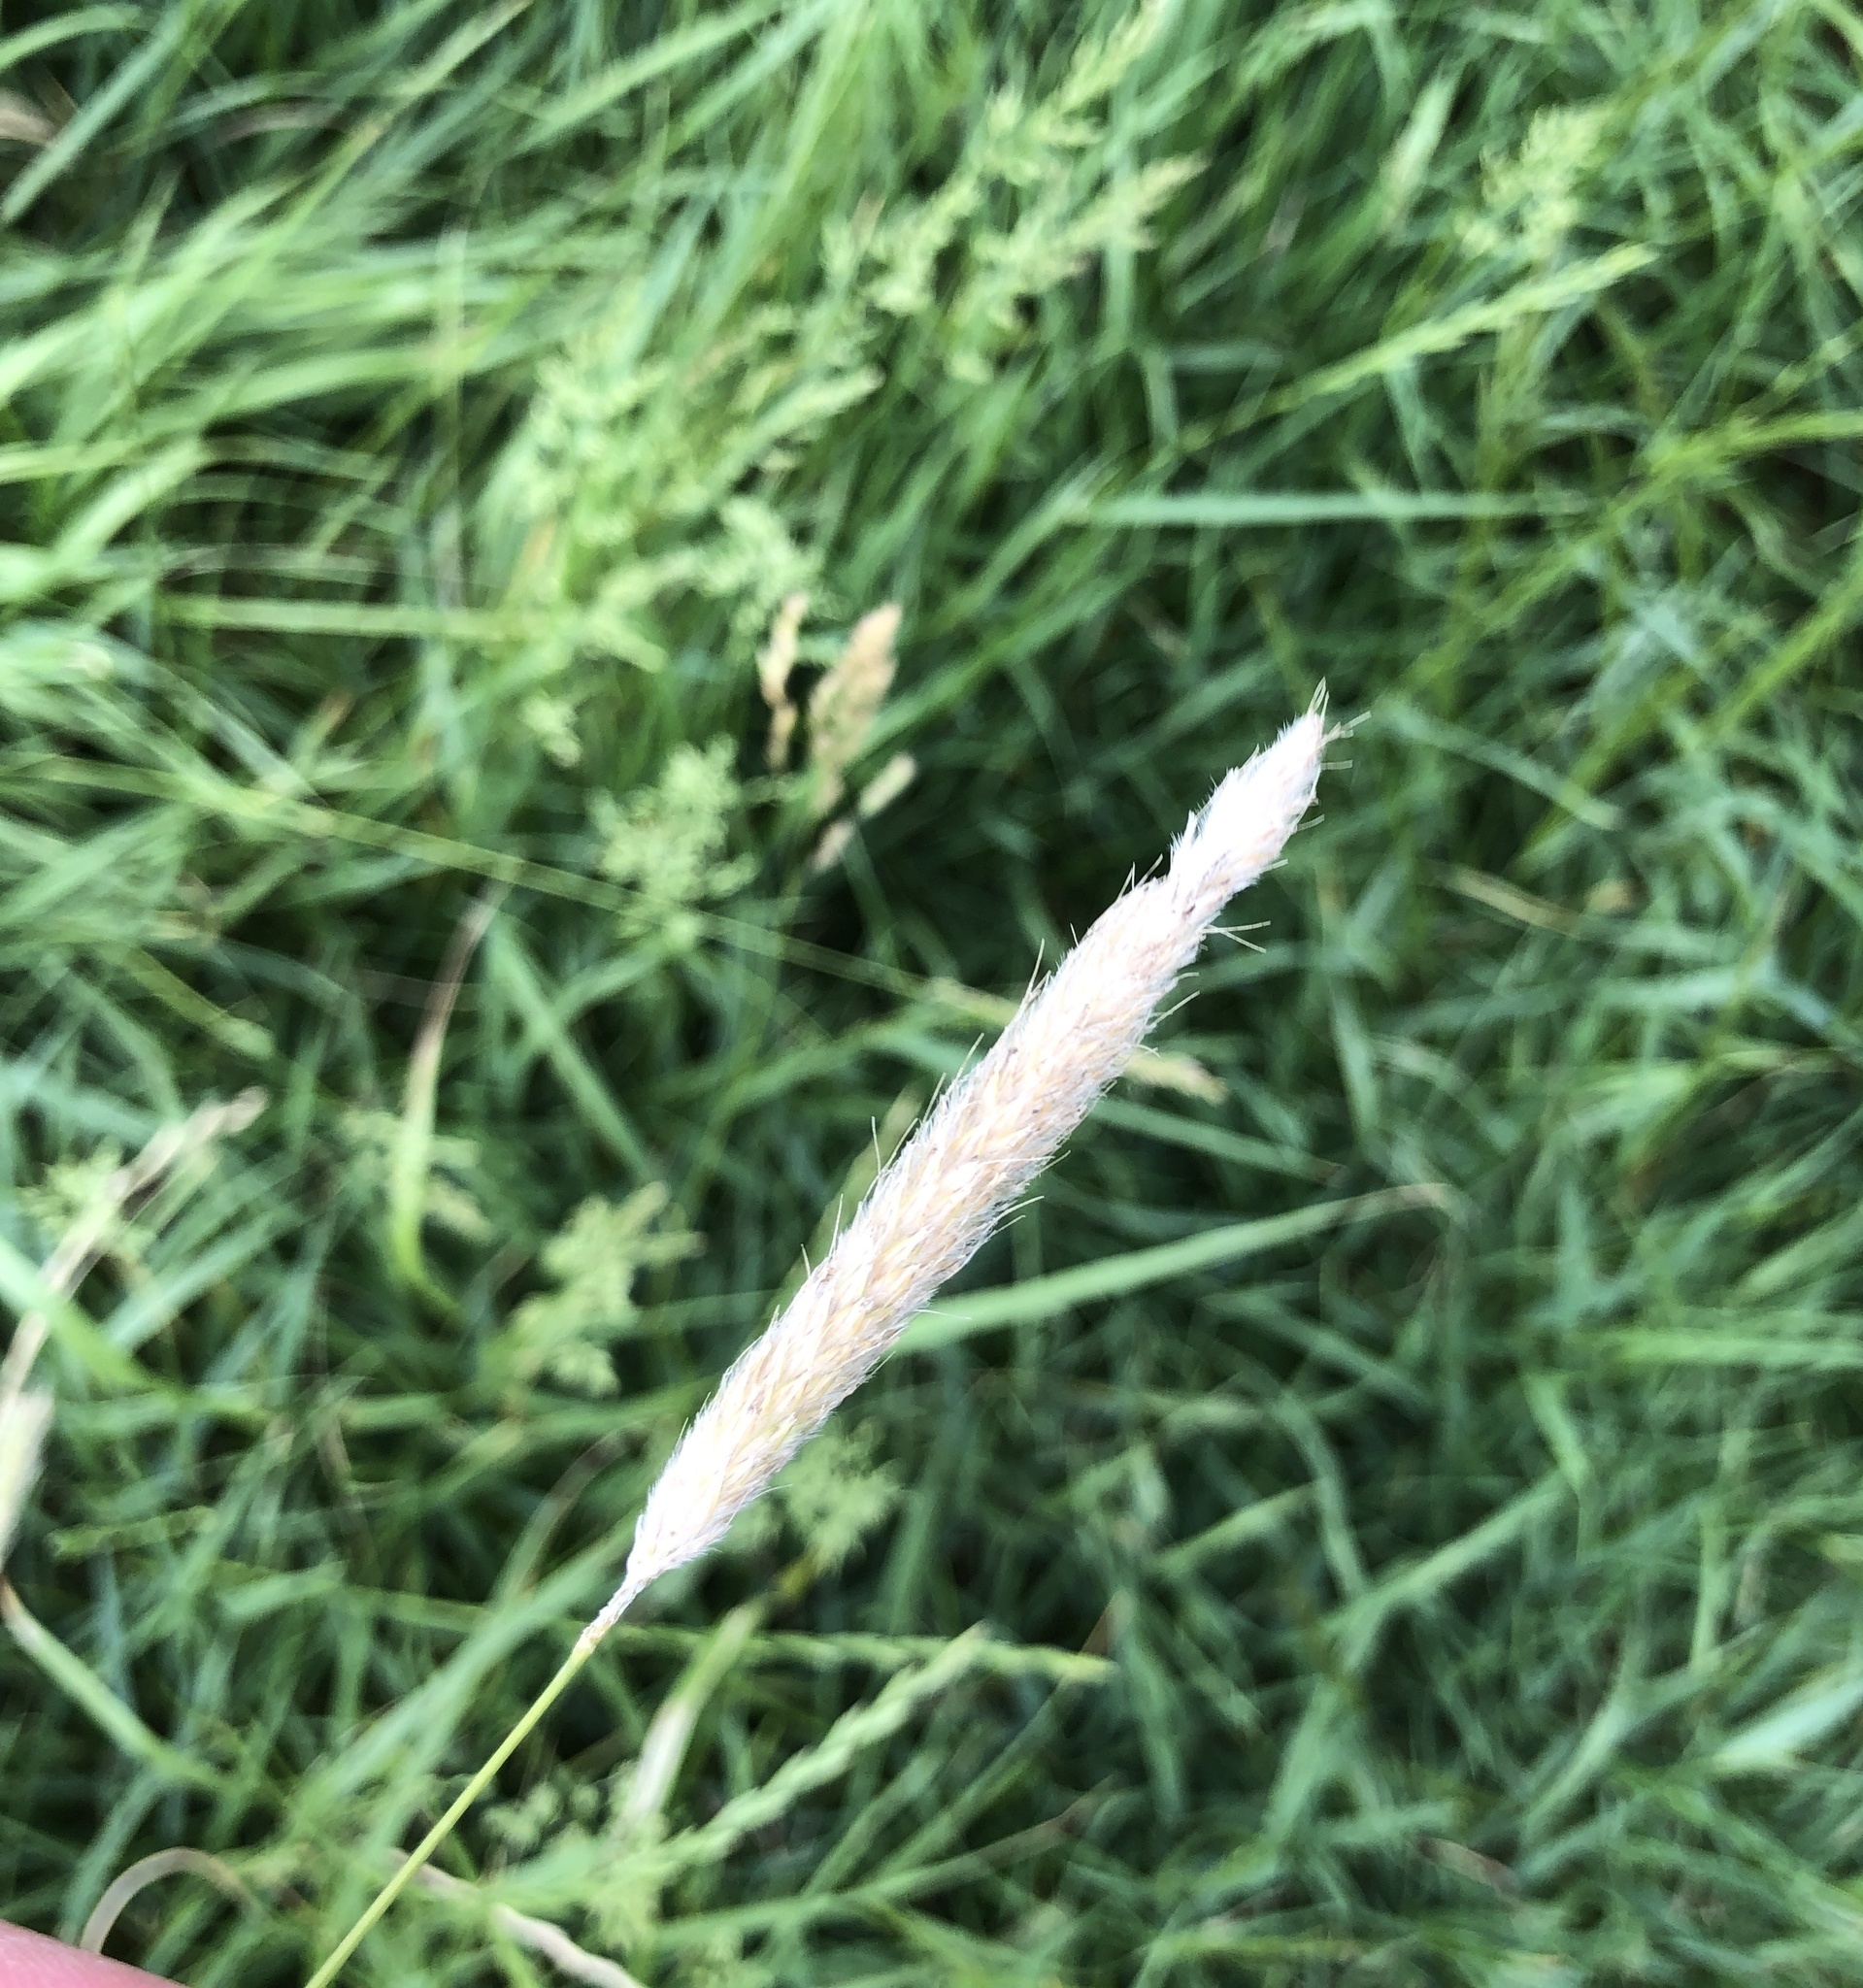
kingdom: Plantae
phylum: Tracheophyta
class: Liliopsida
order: Poales
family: Poaceae
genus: Alopecurus
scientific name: Alopecurus pratensis
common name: Meadow foxtail
